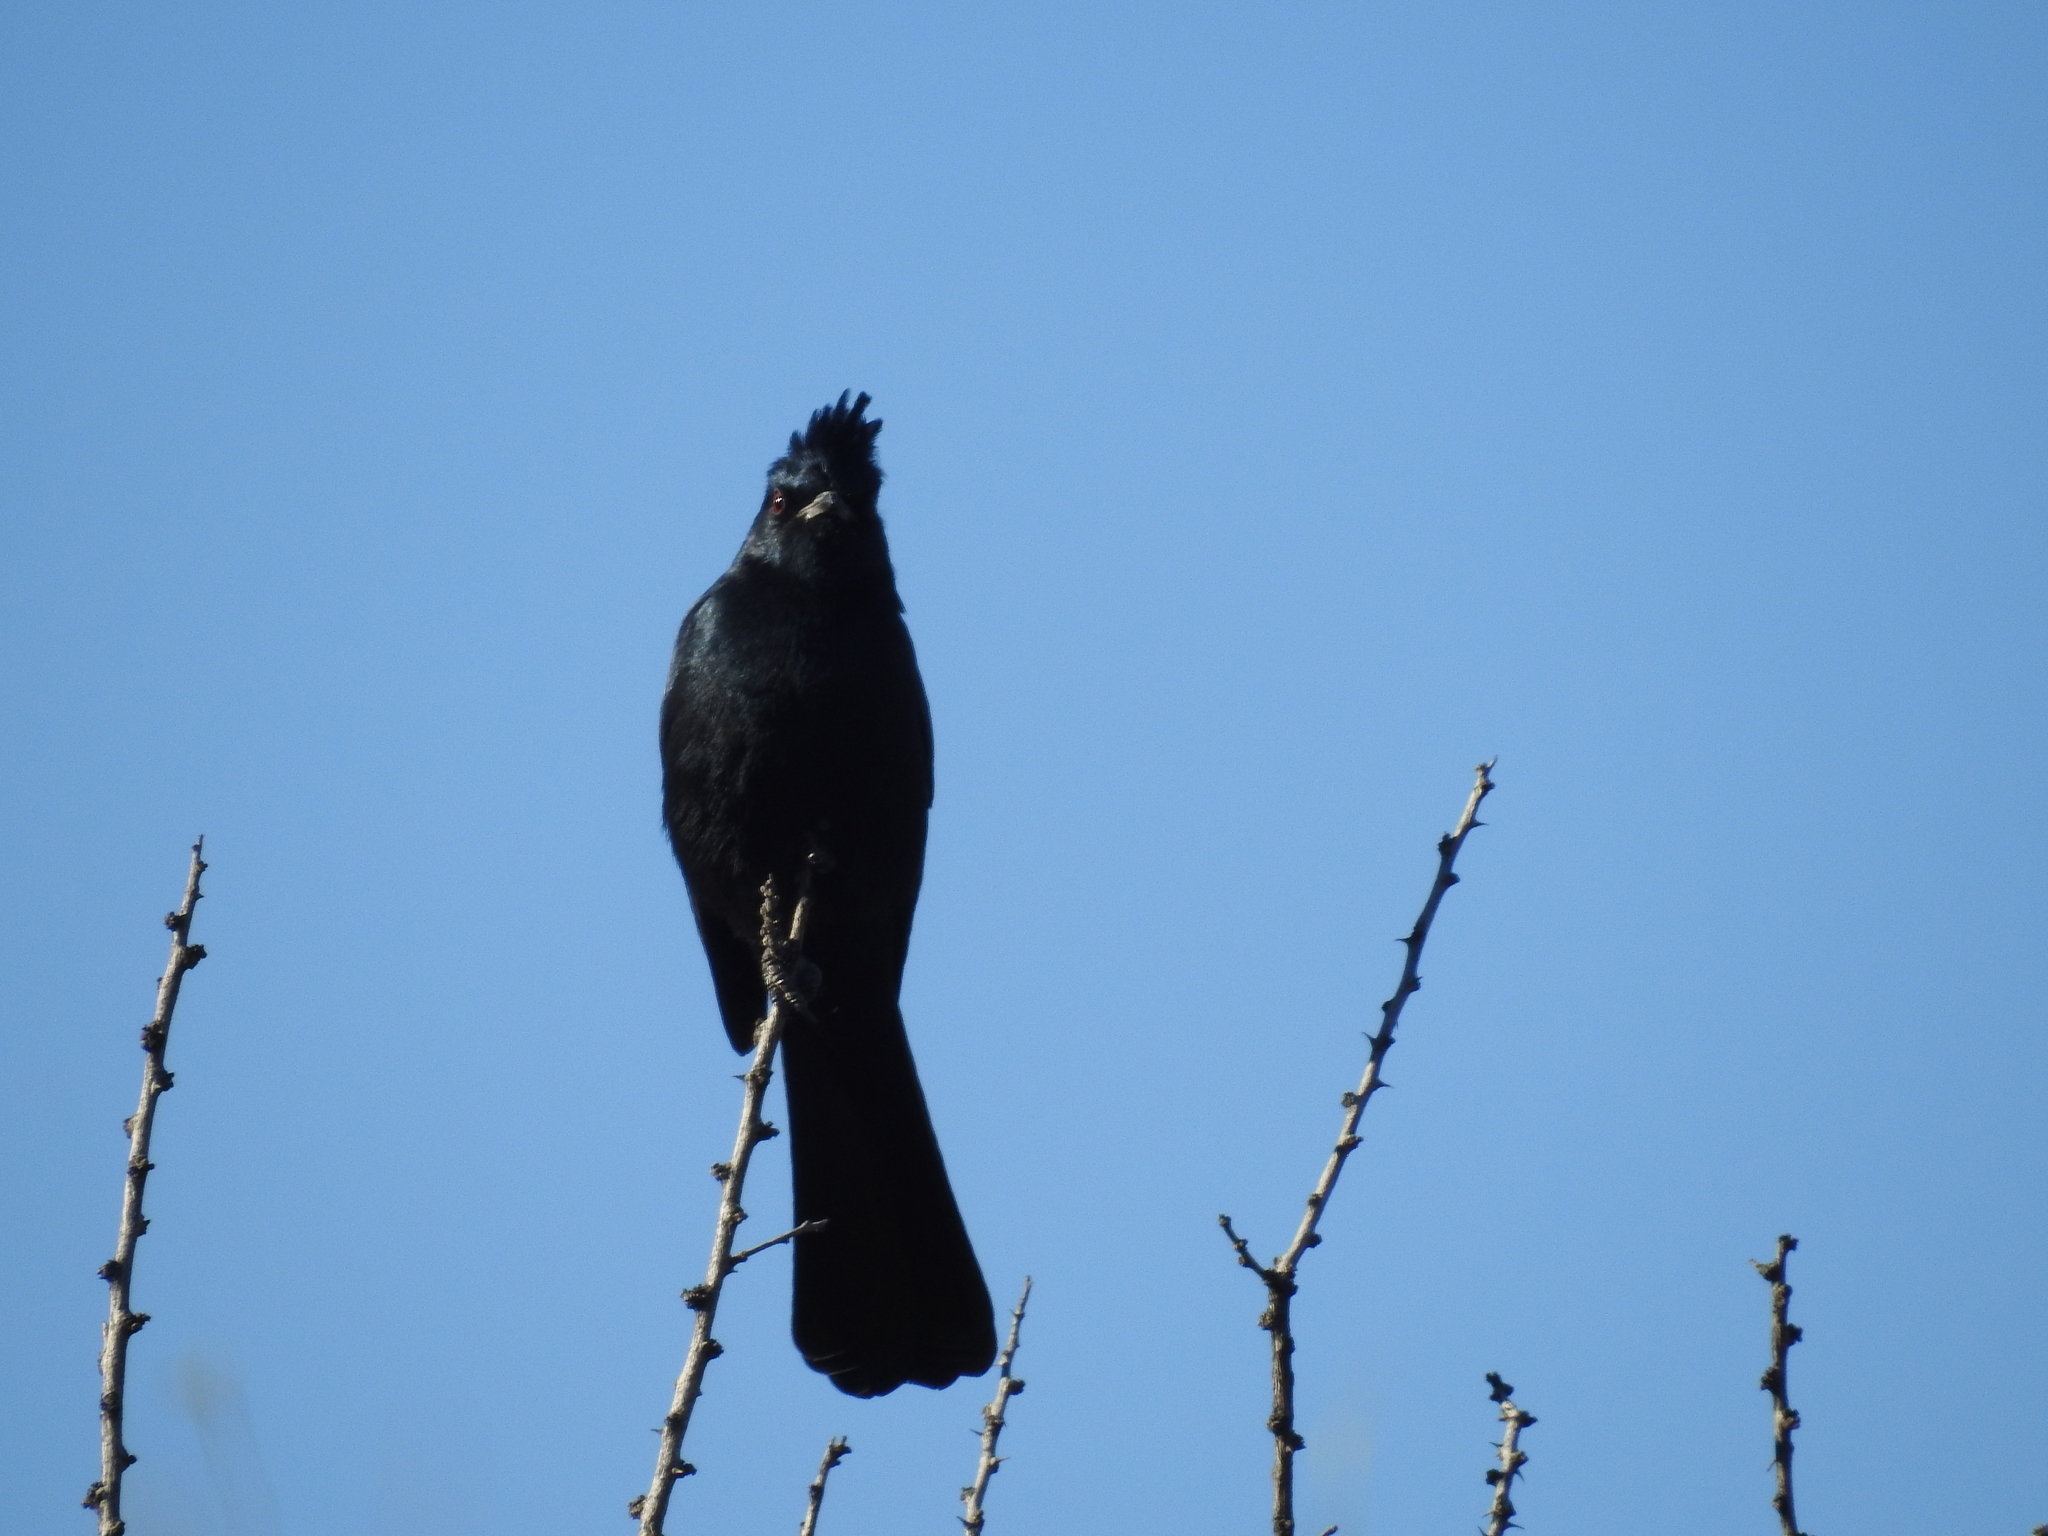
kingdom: Animalia
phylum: Chordata
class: Aves
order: Passeriformes
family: Ptilogonatidae
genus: Phainopepla
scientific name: Phainopepla nitens
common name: Phainopepla
